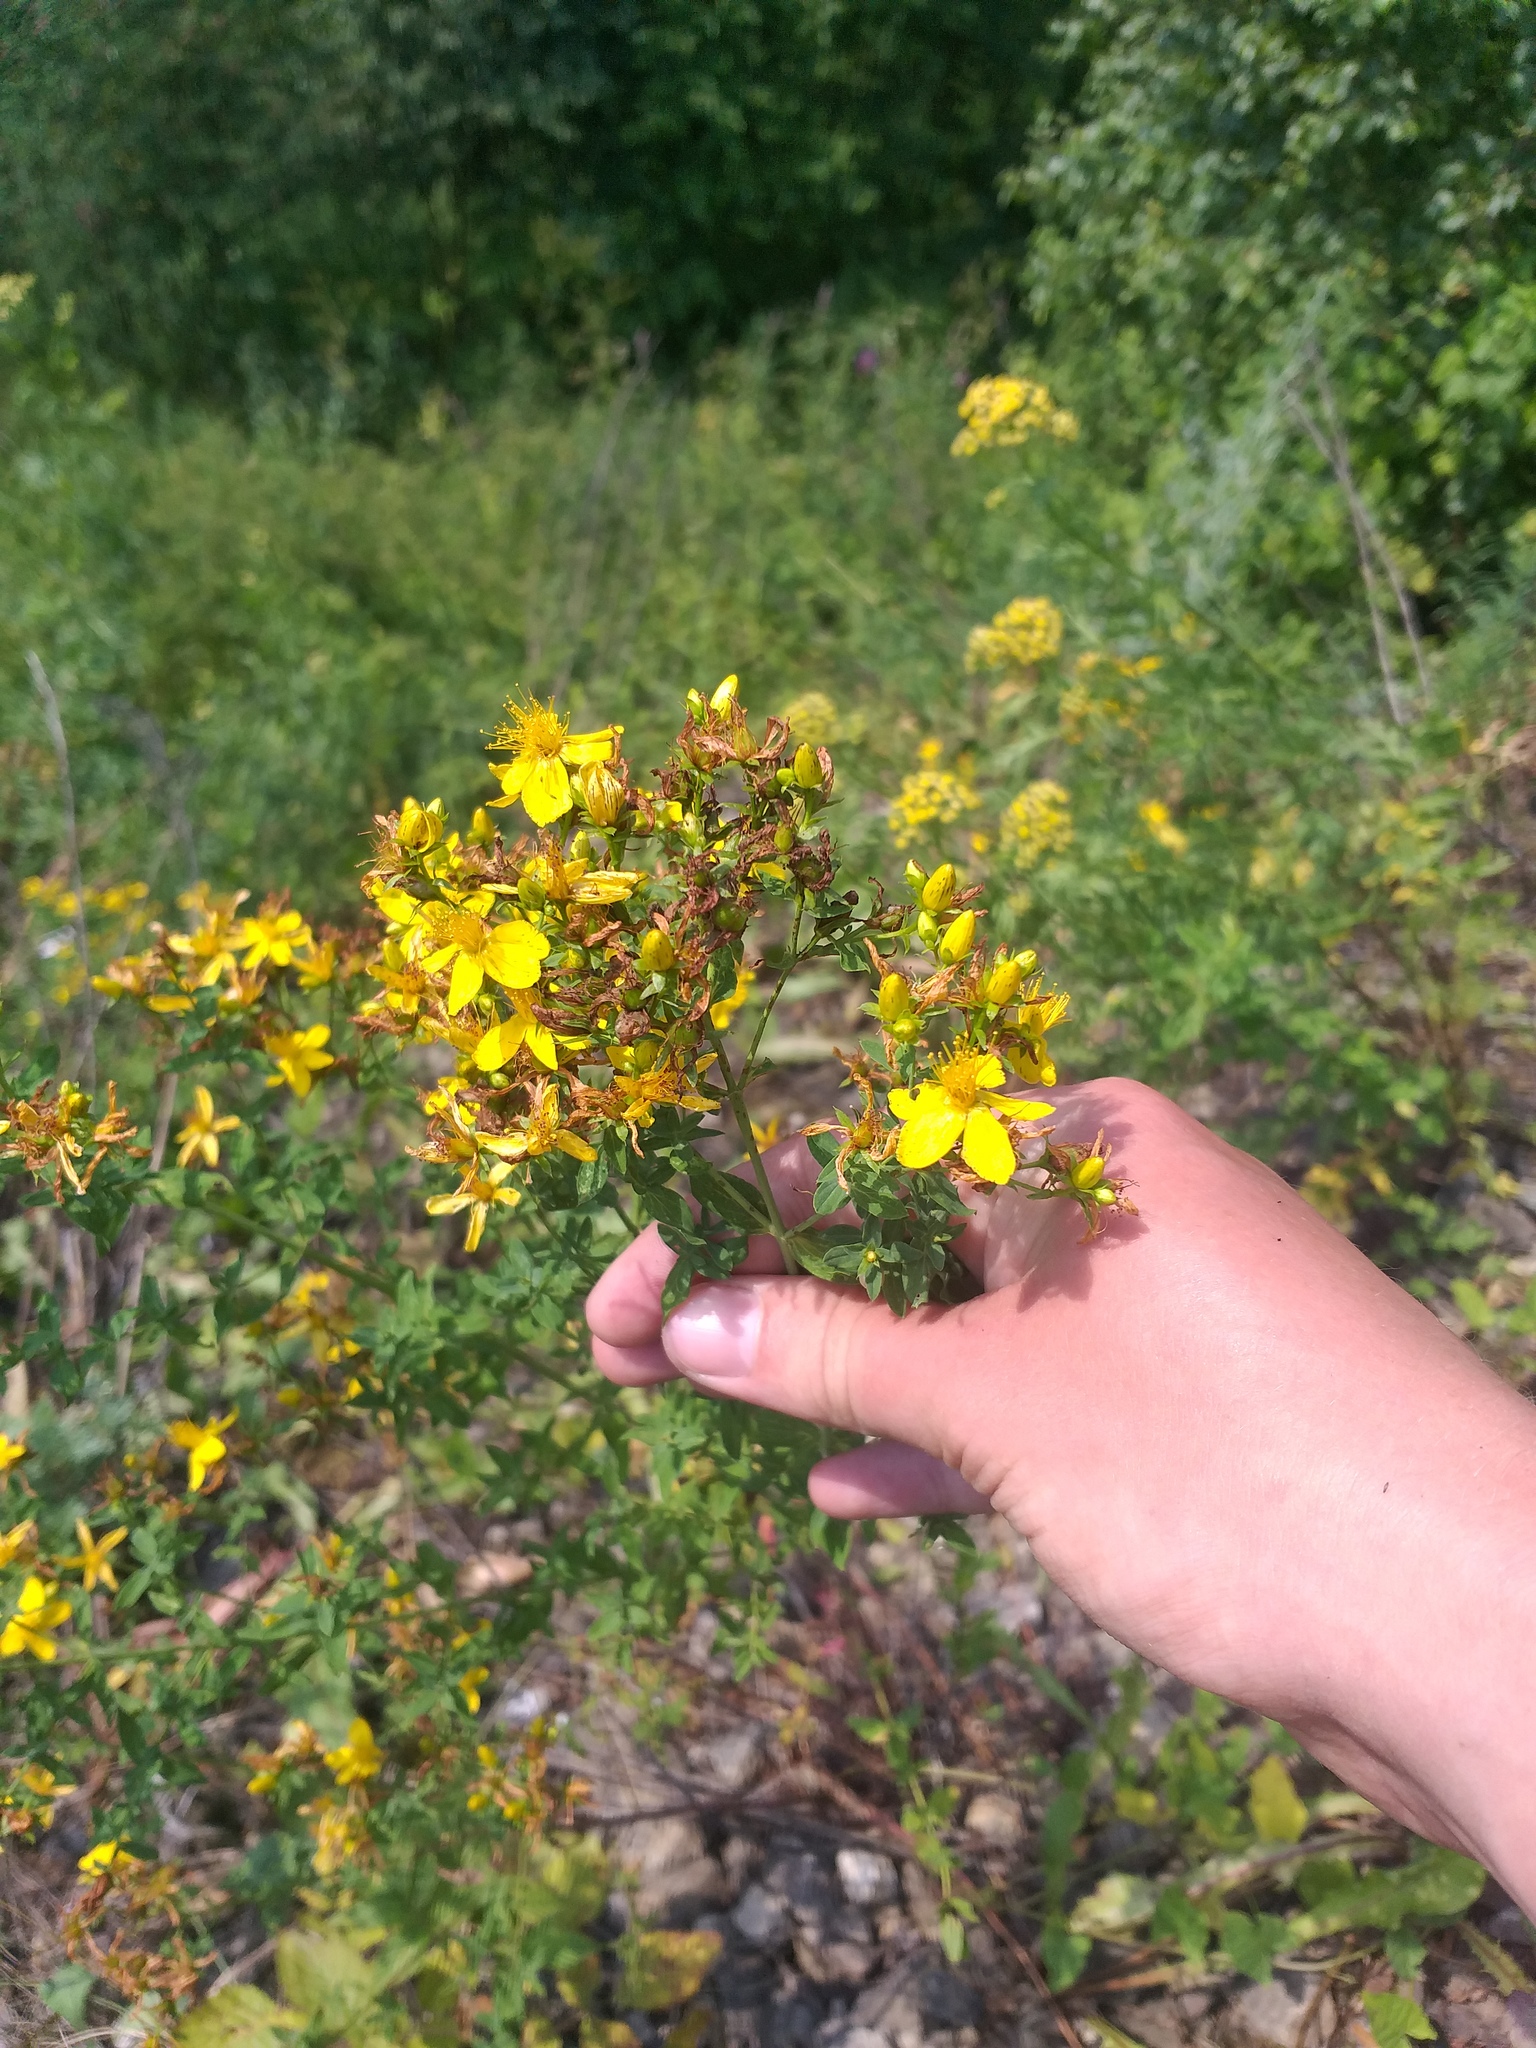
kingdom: Plantae
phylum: Tracheophyta
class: Magnoliopsida
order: Malpighiales
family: Hypericaceae
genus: Hypericum
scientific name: Hypericum perforatum
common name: Common st. johnswort
